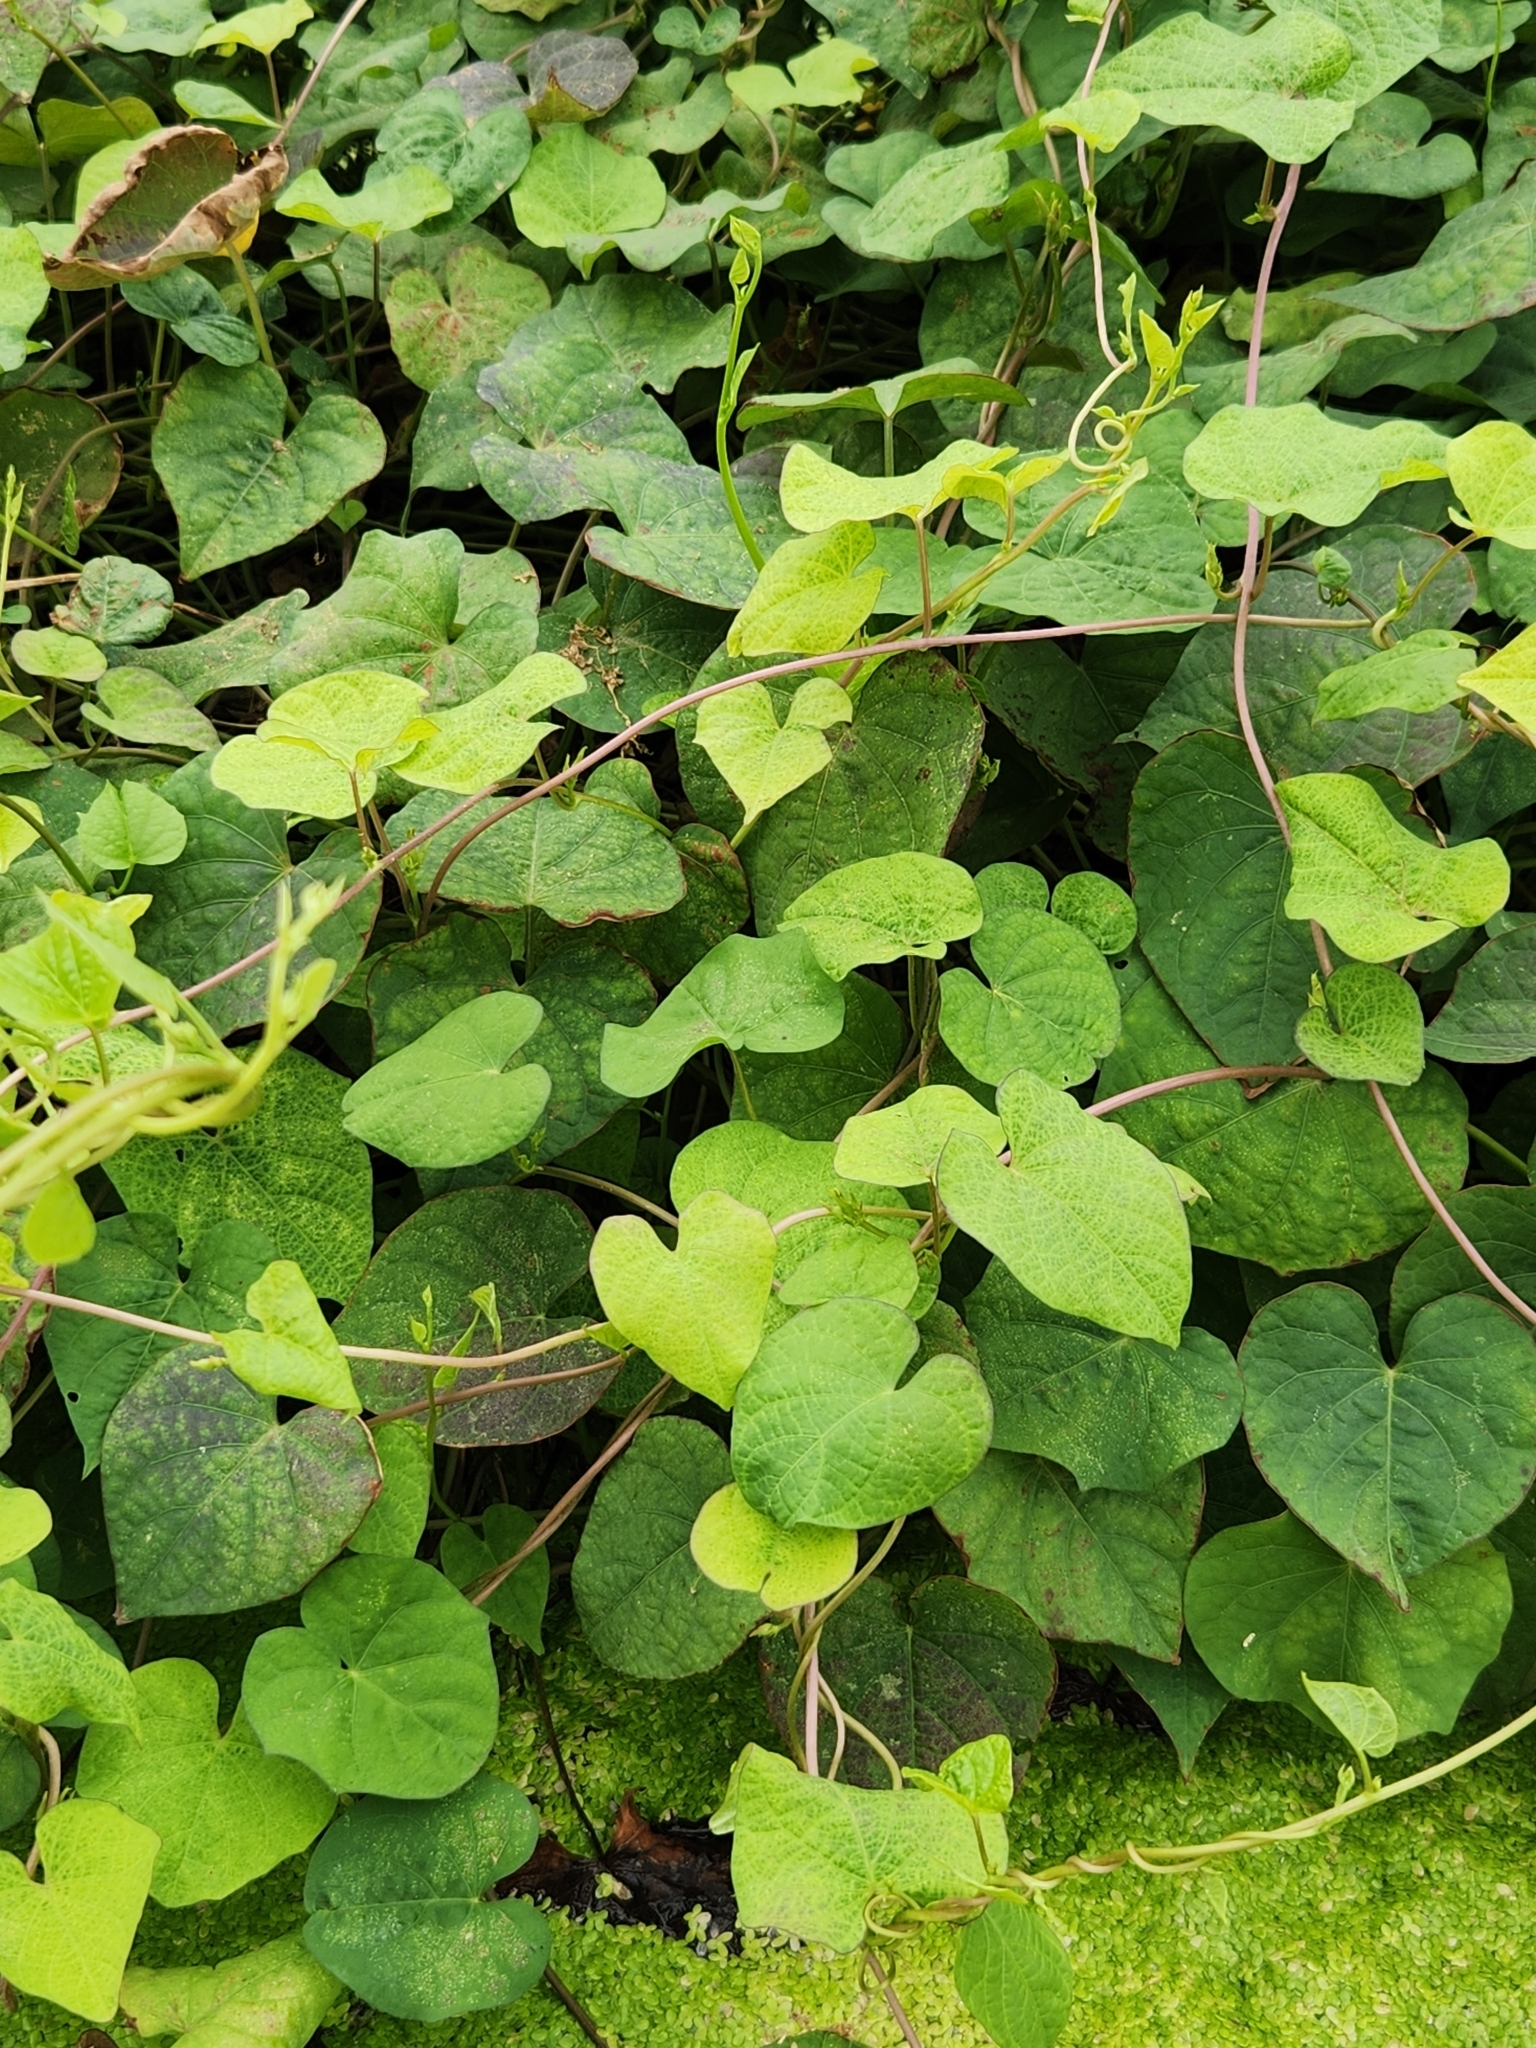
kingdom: Plantae
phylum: Tracheophyta
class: Magnoliopsida
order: Solanales
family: Convolvulaceae
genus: Ipomoea
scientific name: Ipomoea triloba
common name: Little-bell
